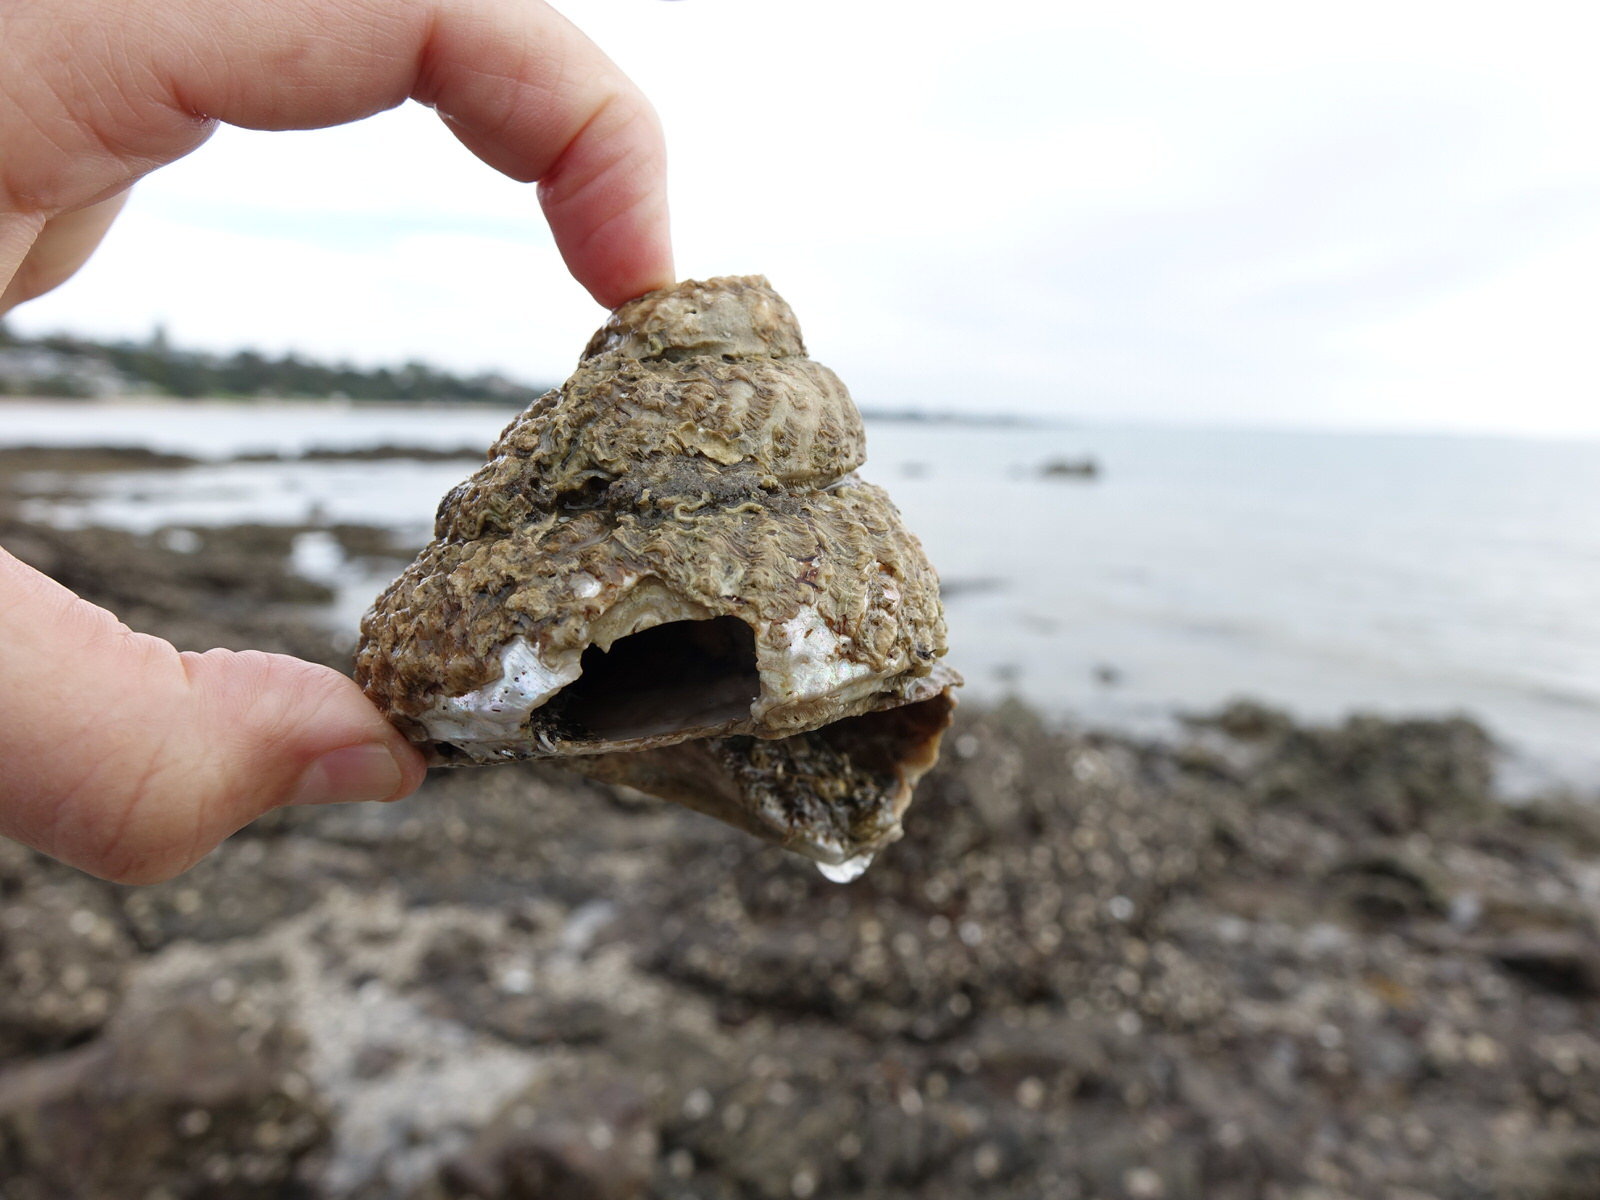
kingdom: Animalia
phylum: Mollusca
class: Gastropoda
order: Trochida
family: Turbinidae
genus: Cookia
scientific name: Cookia sulcata
